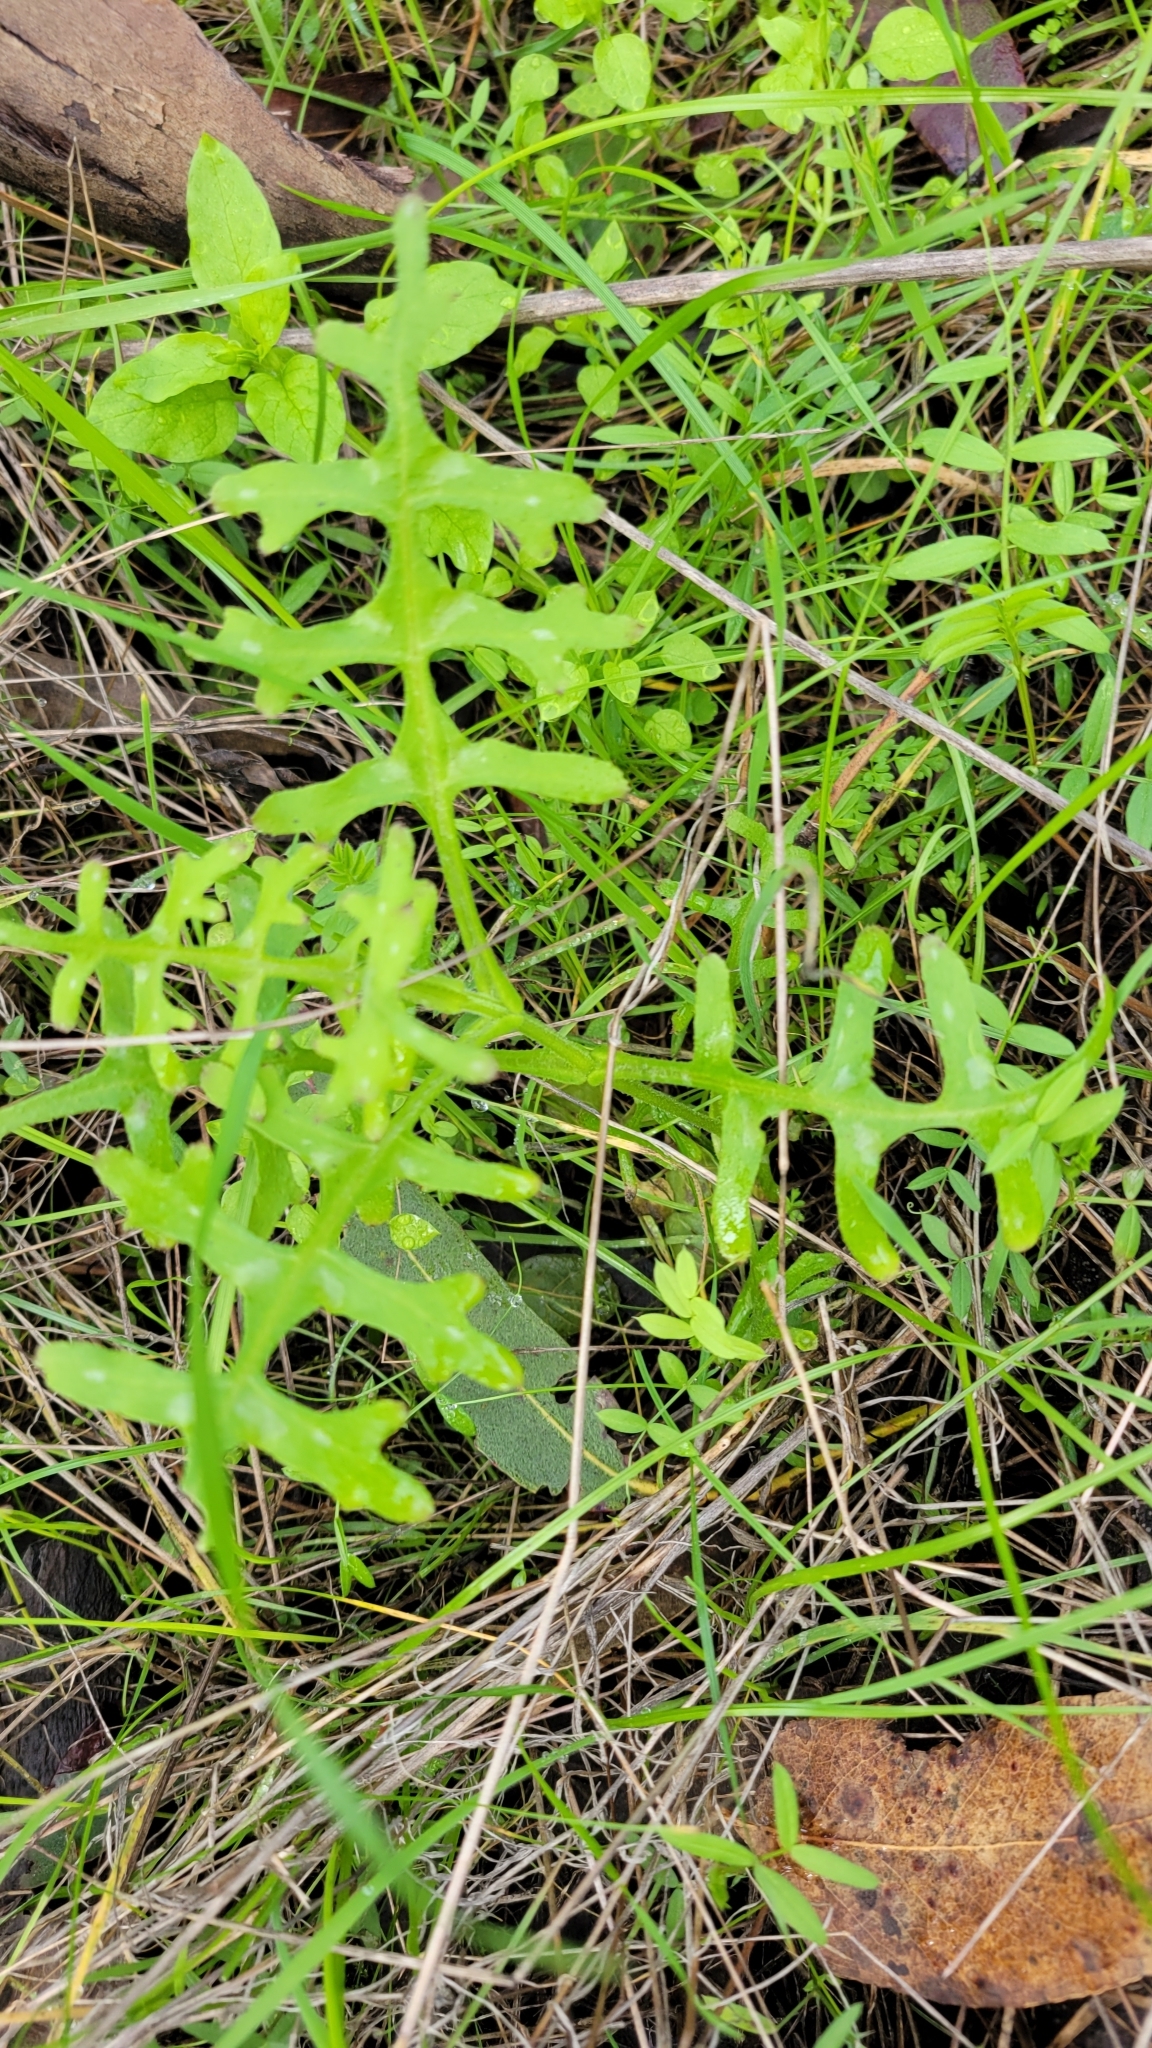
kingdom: Plantae
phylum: Tracheophyta
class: Magnoliopsida
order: Boraginales
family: Hydrophyllaceae
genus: Pholistoma
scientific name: Pholistoma auritum
